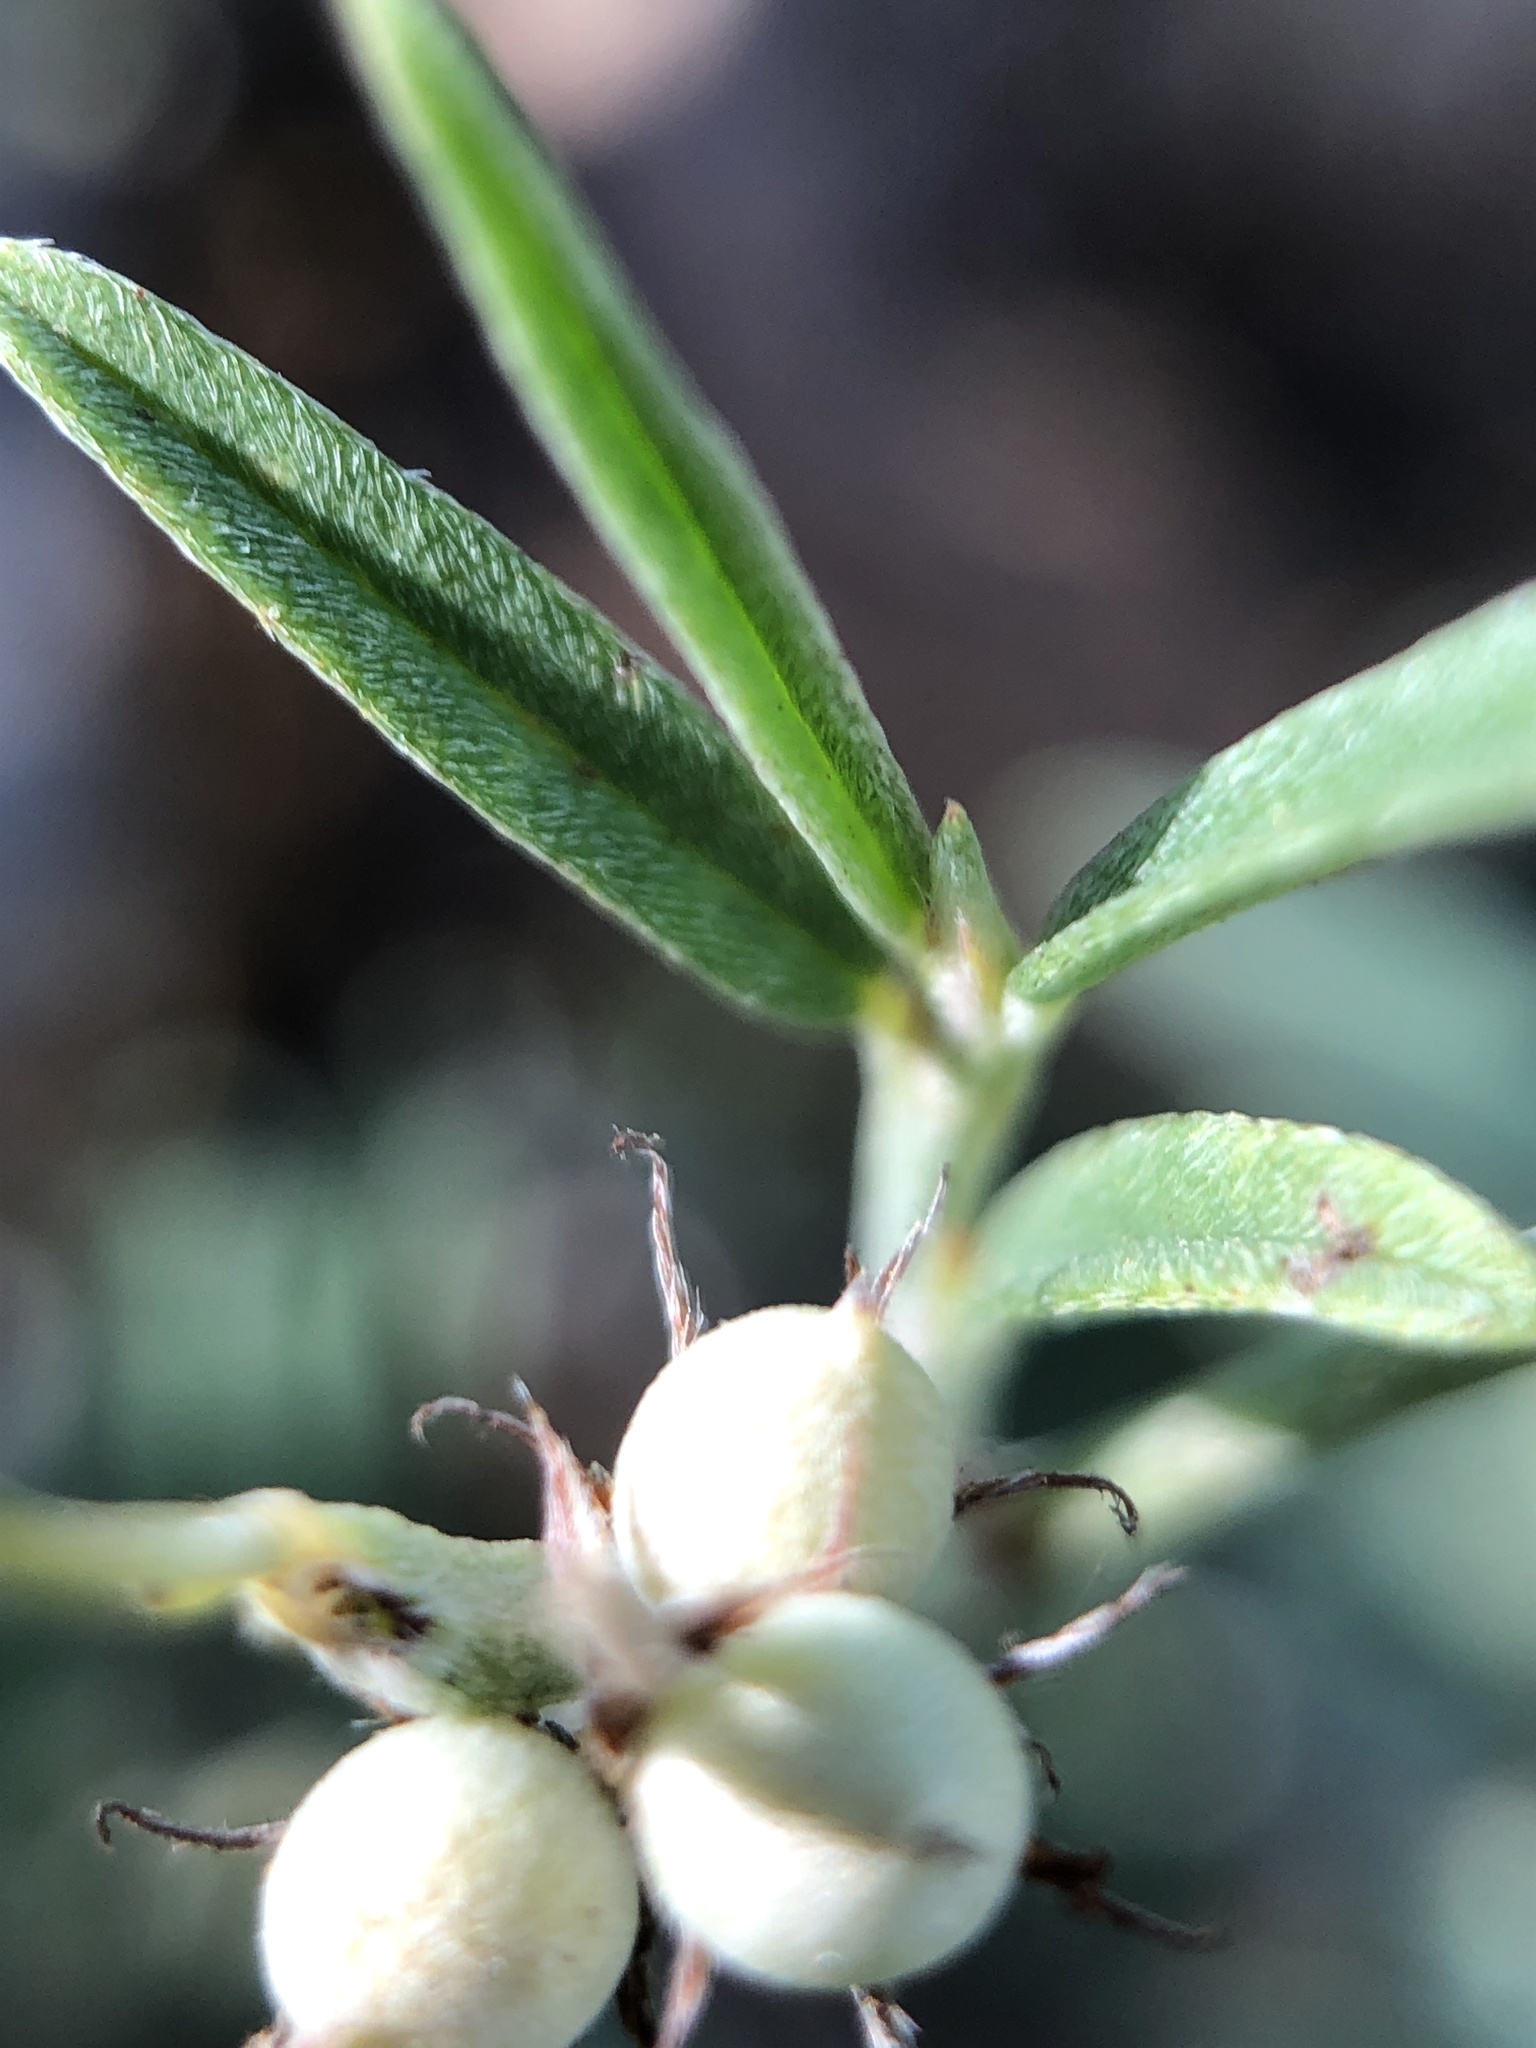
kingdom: Plantae
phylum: Tracheophyta
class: Magnoliopsida
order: Fabales
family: Fabaceae
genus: Indigofera
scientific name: Indigofera linifolia
